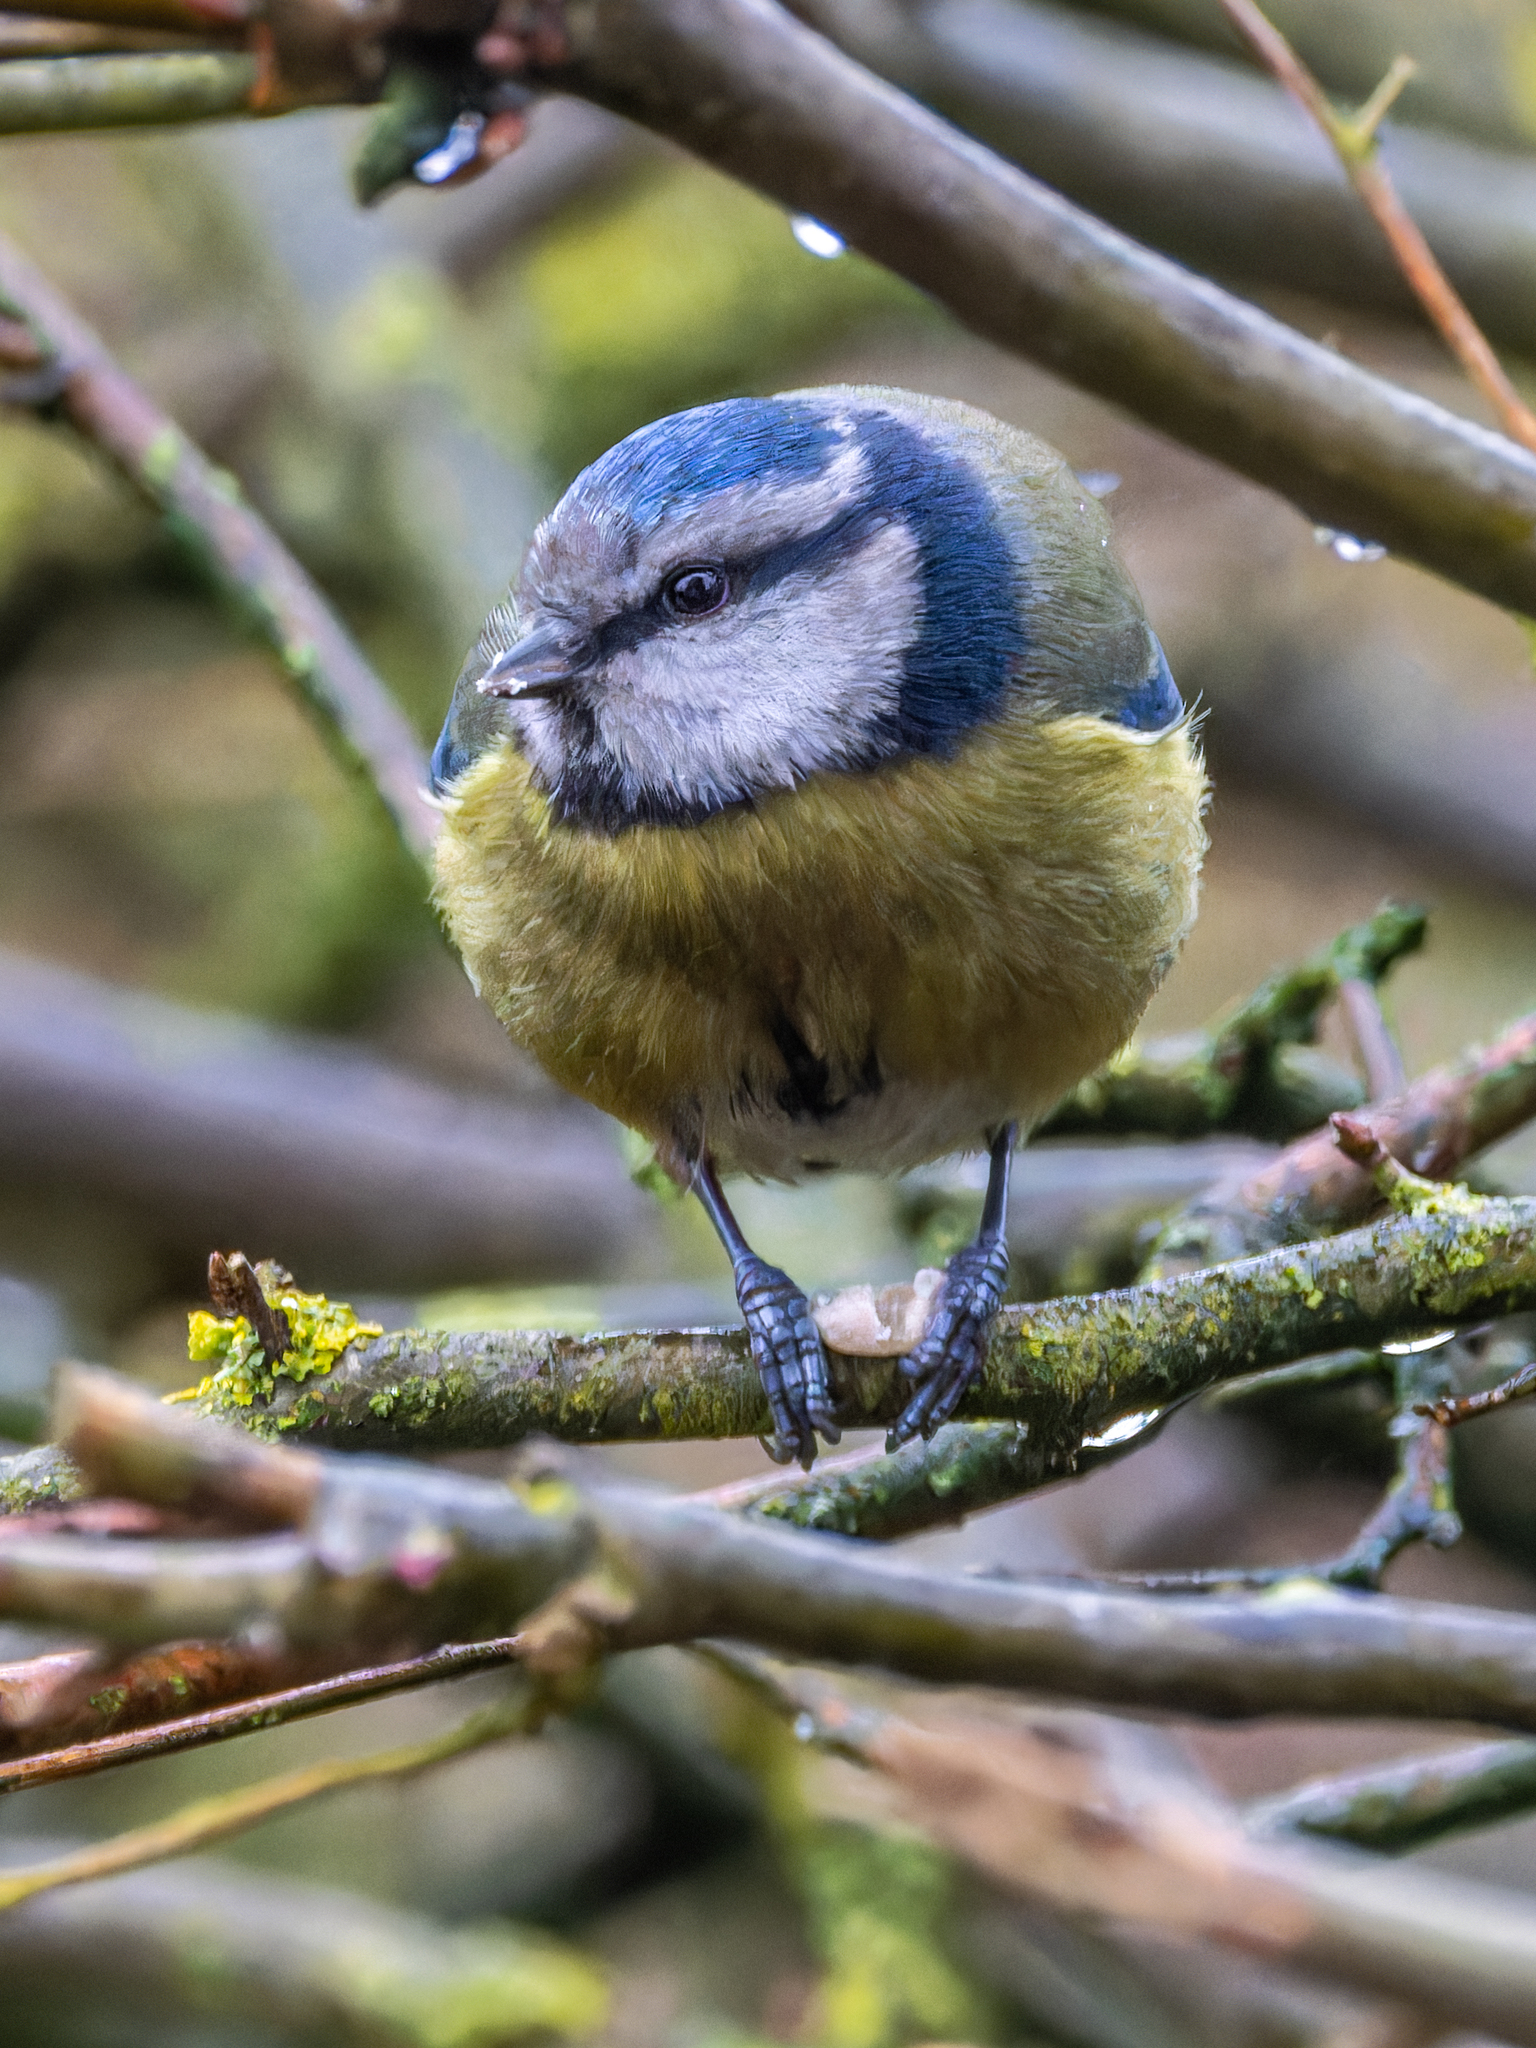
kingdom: Animalia
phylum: Chordata
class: Aves
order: Passeriformes
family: Paridae
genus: Cyanistes
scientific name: Cyanistes caeruleus
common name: Eurasian blue tit
